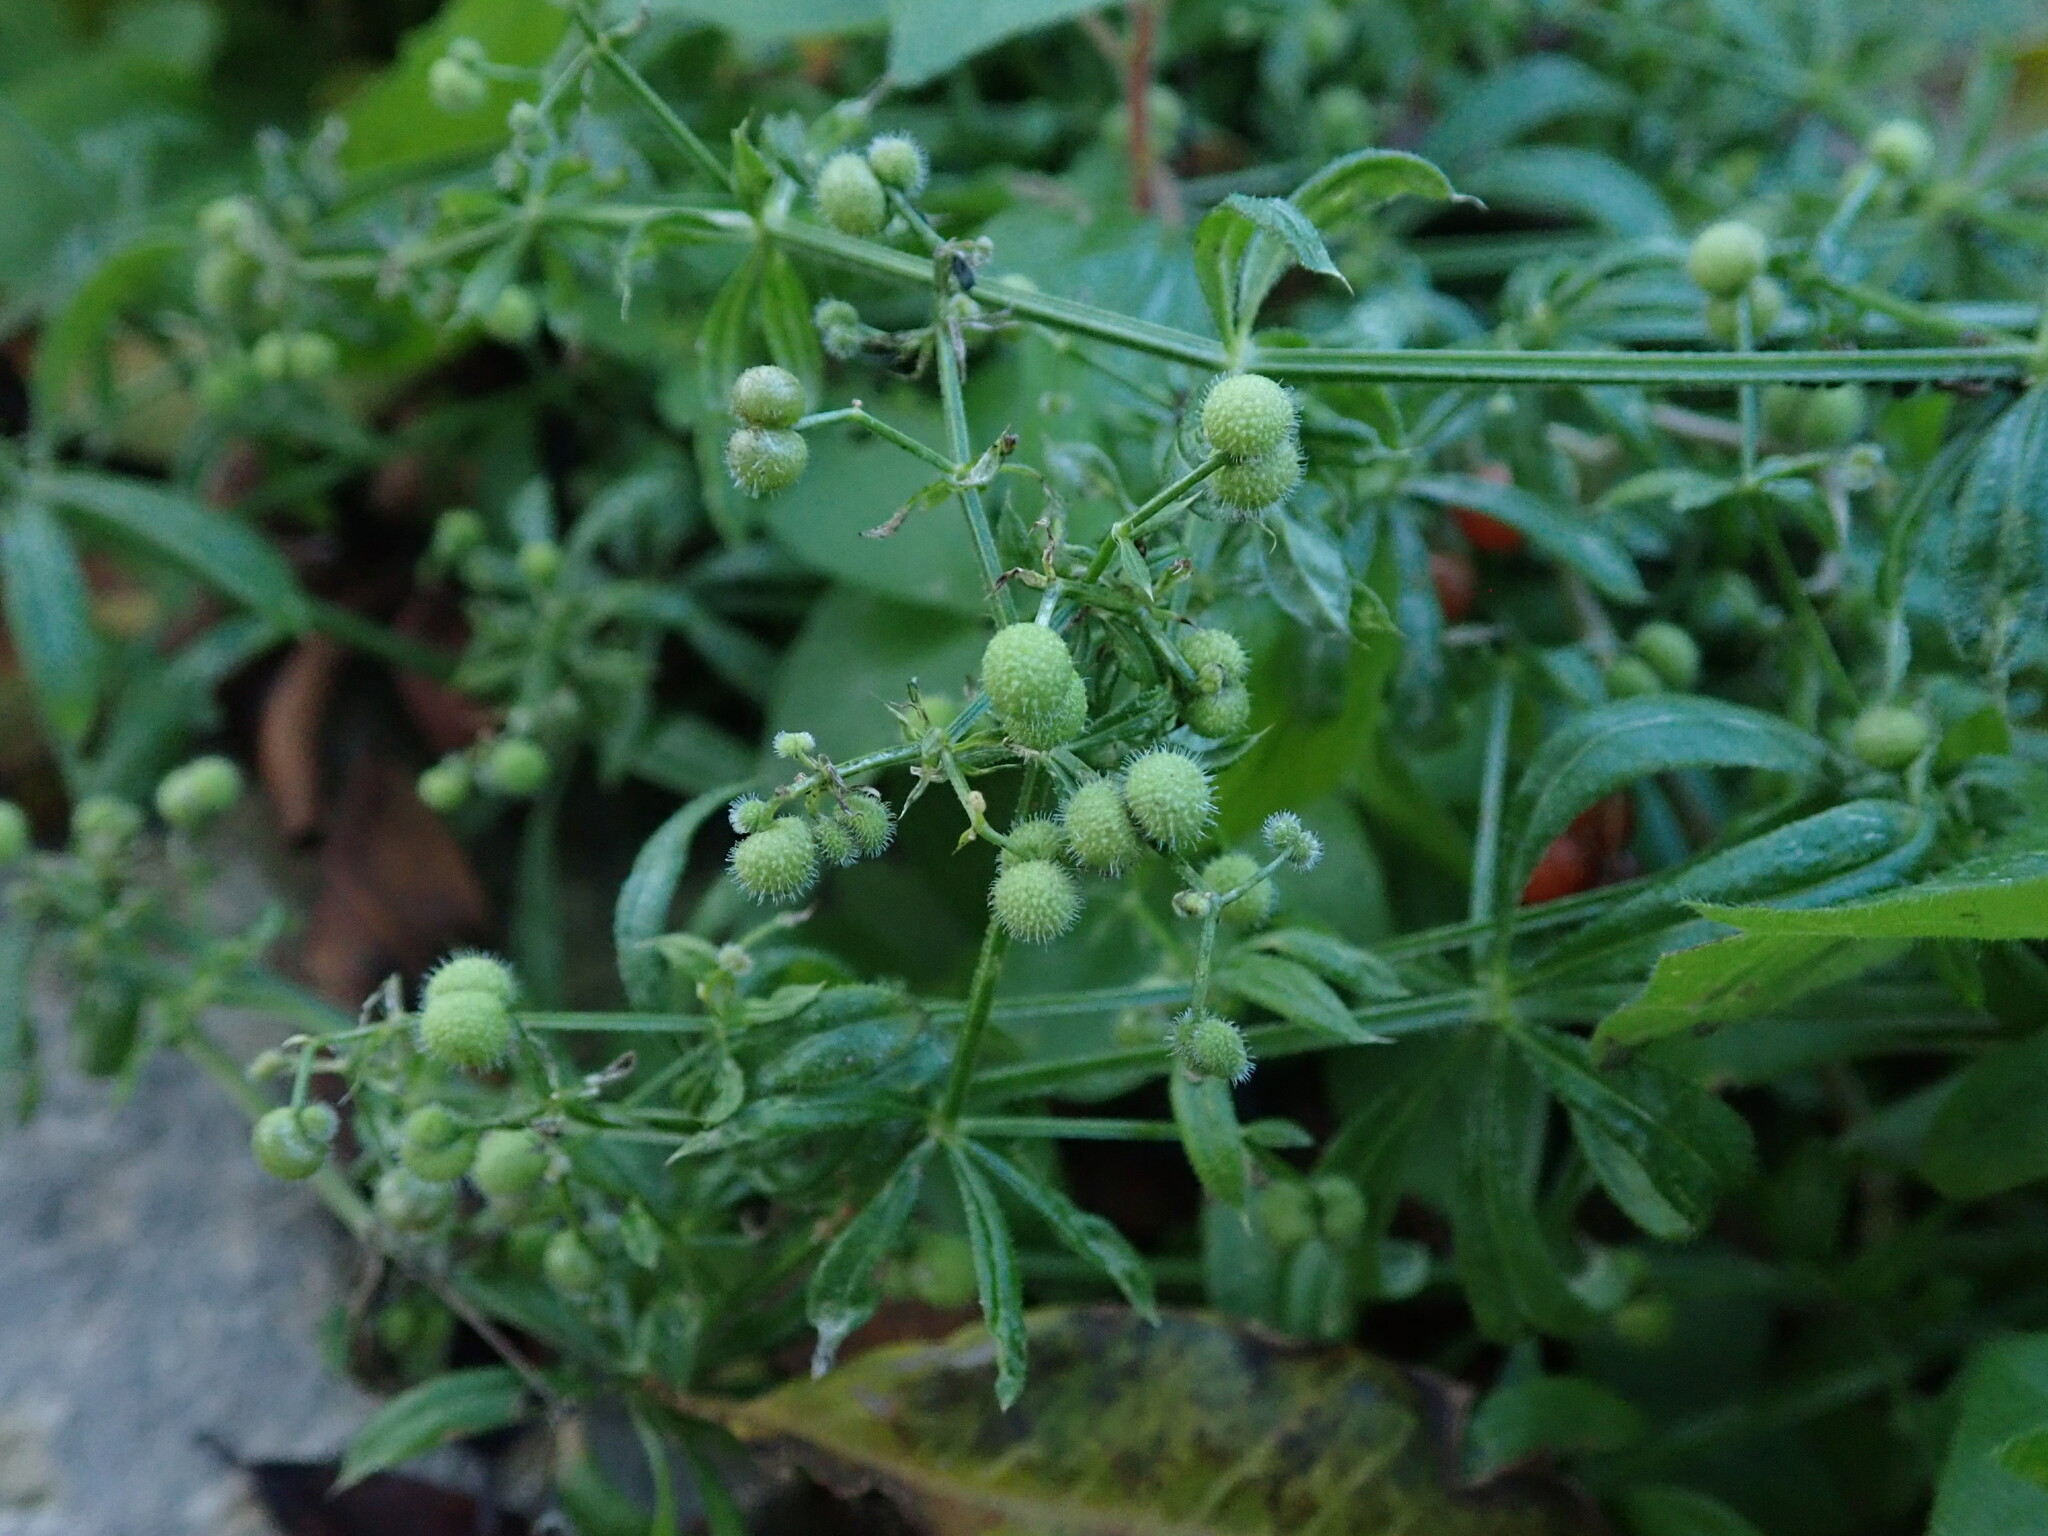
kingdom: Plantae
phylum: Tracheophyta
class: Magnoliopsida
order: Gentianales
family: Rubiaceae
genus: Galium
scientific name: Galium aparine
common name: Cleavers
